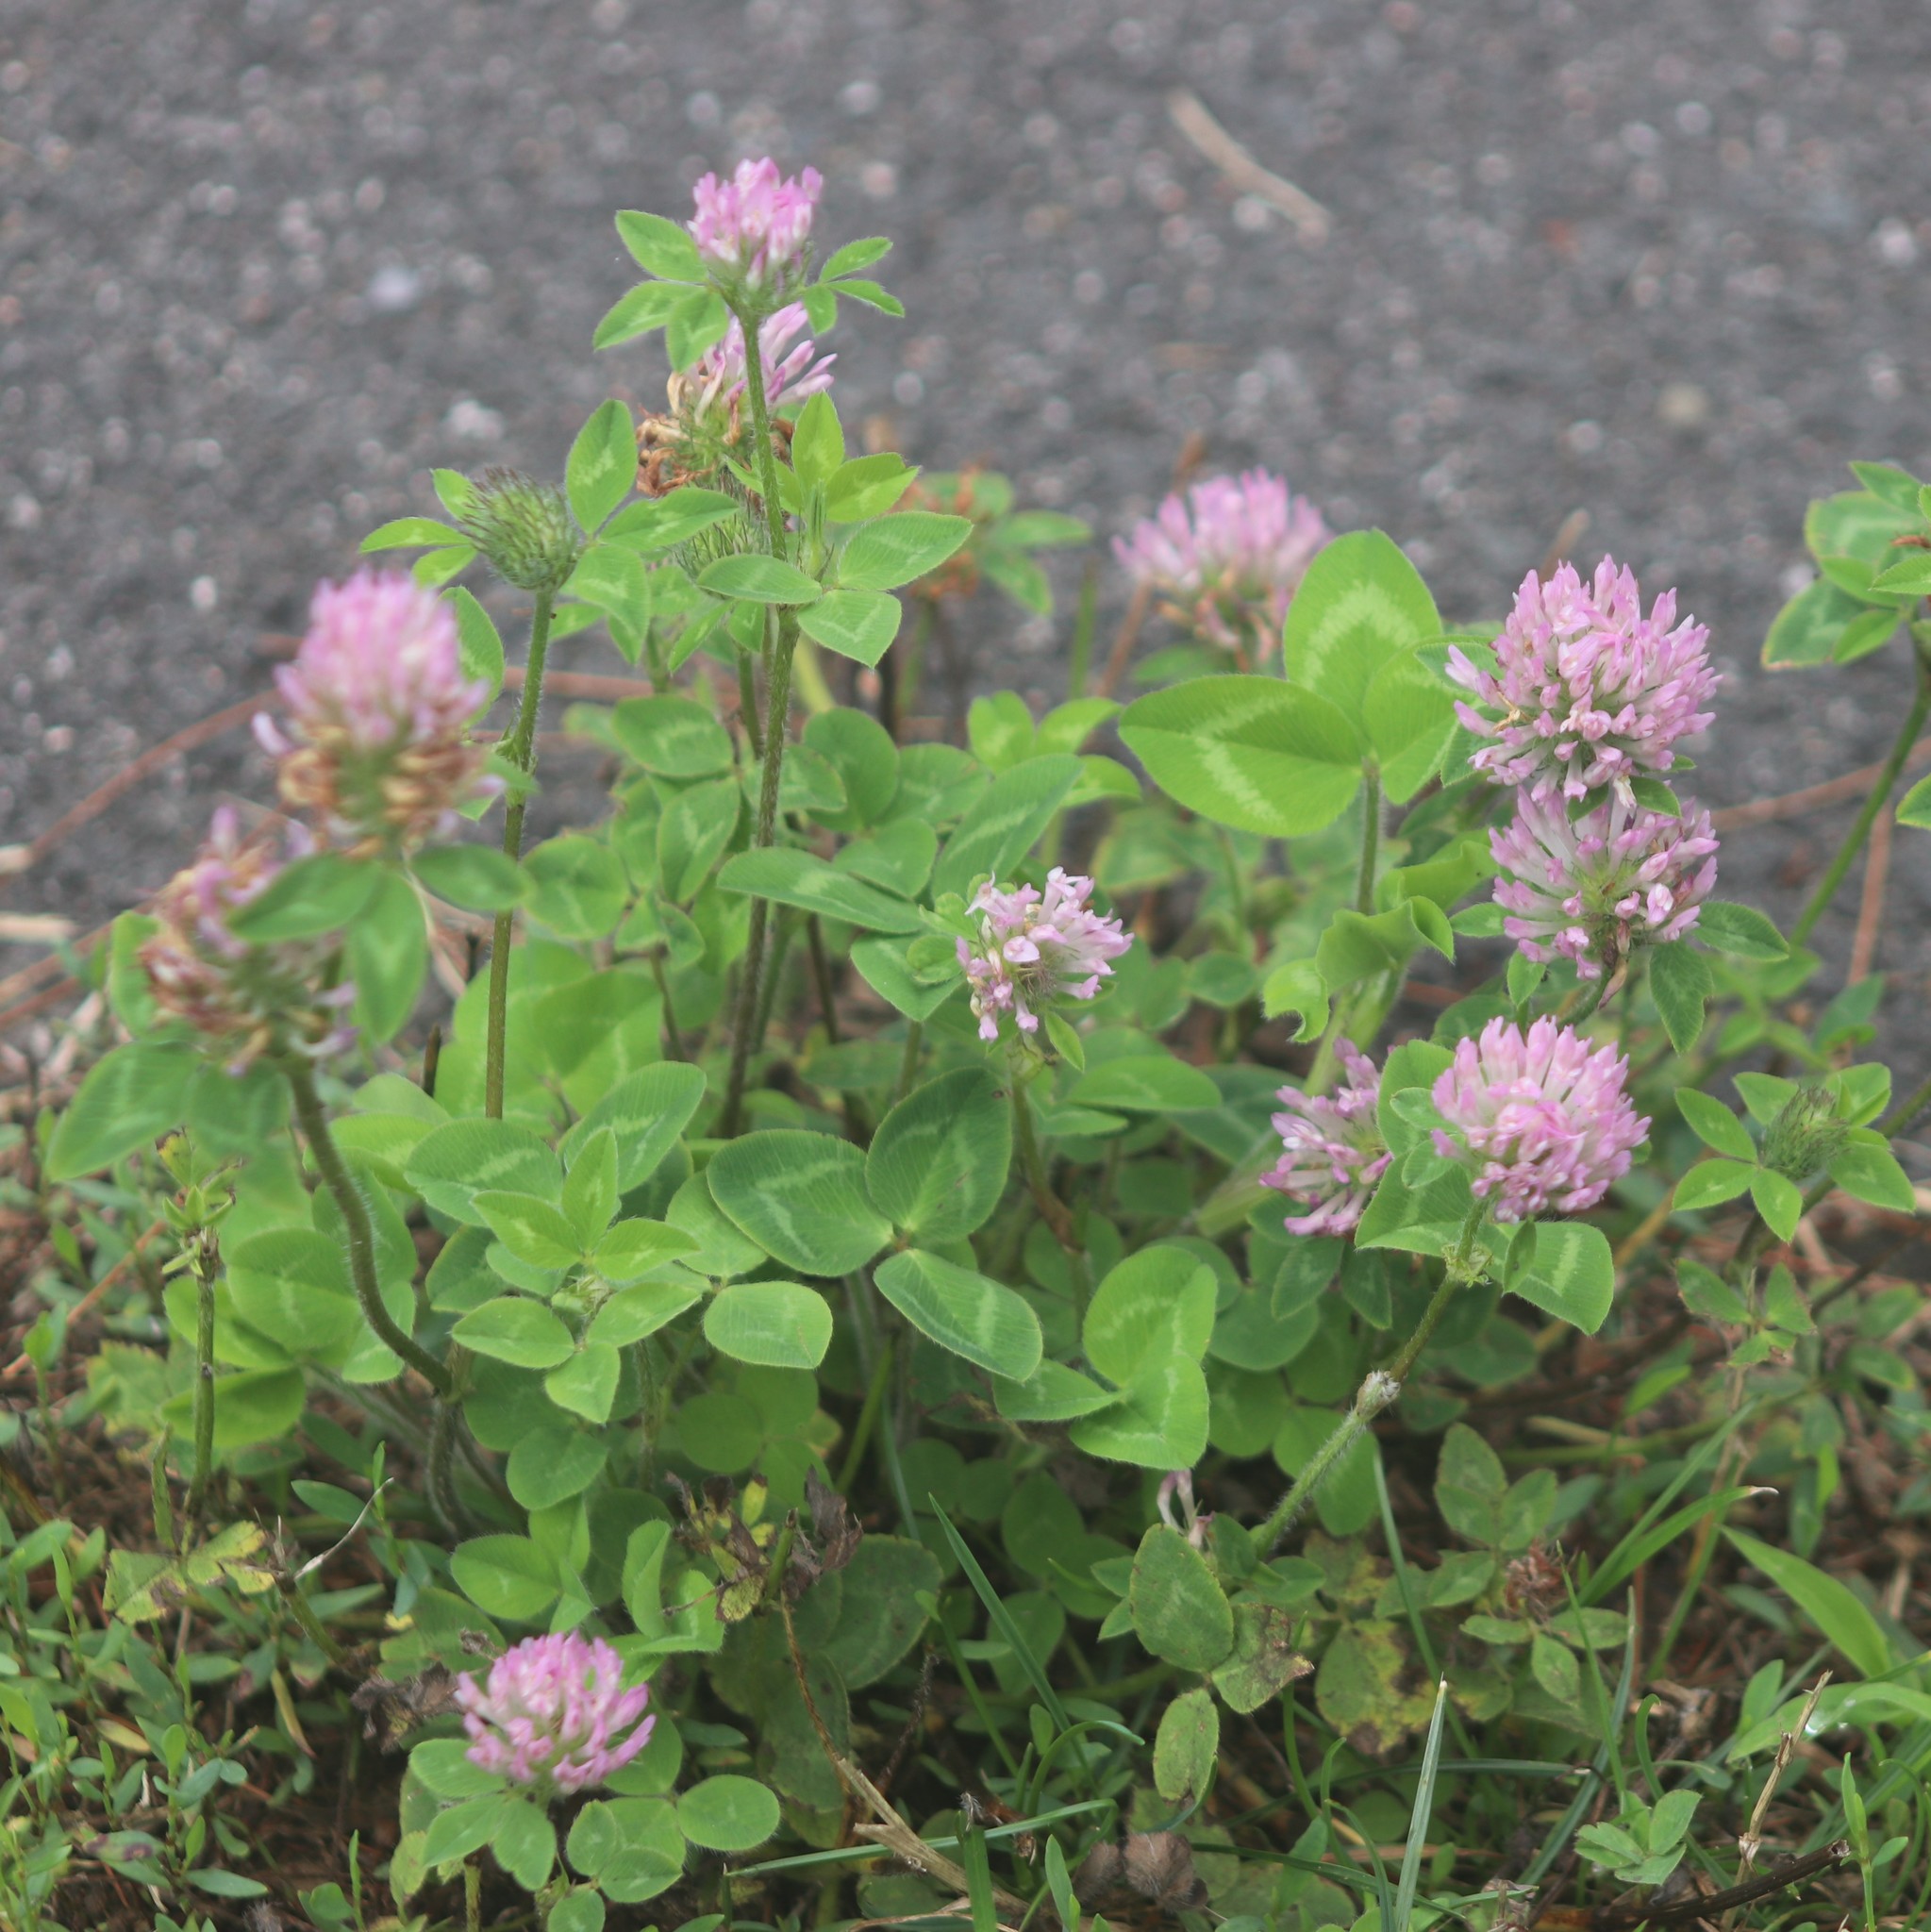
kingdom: Plantae
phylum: Tracheophyta
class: Magnoliopsida
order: Fabales
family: Fabaceae
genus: Trifolium
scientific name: Trifolium pratense
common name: Red clover
